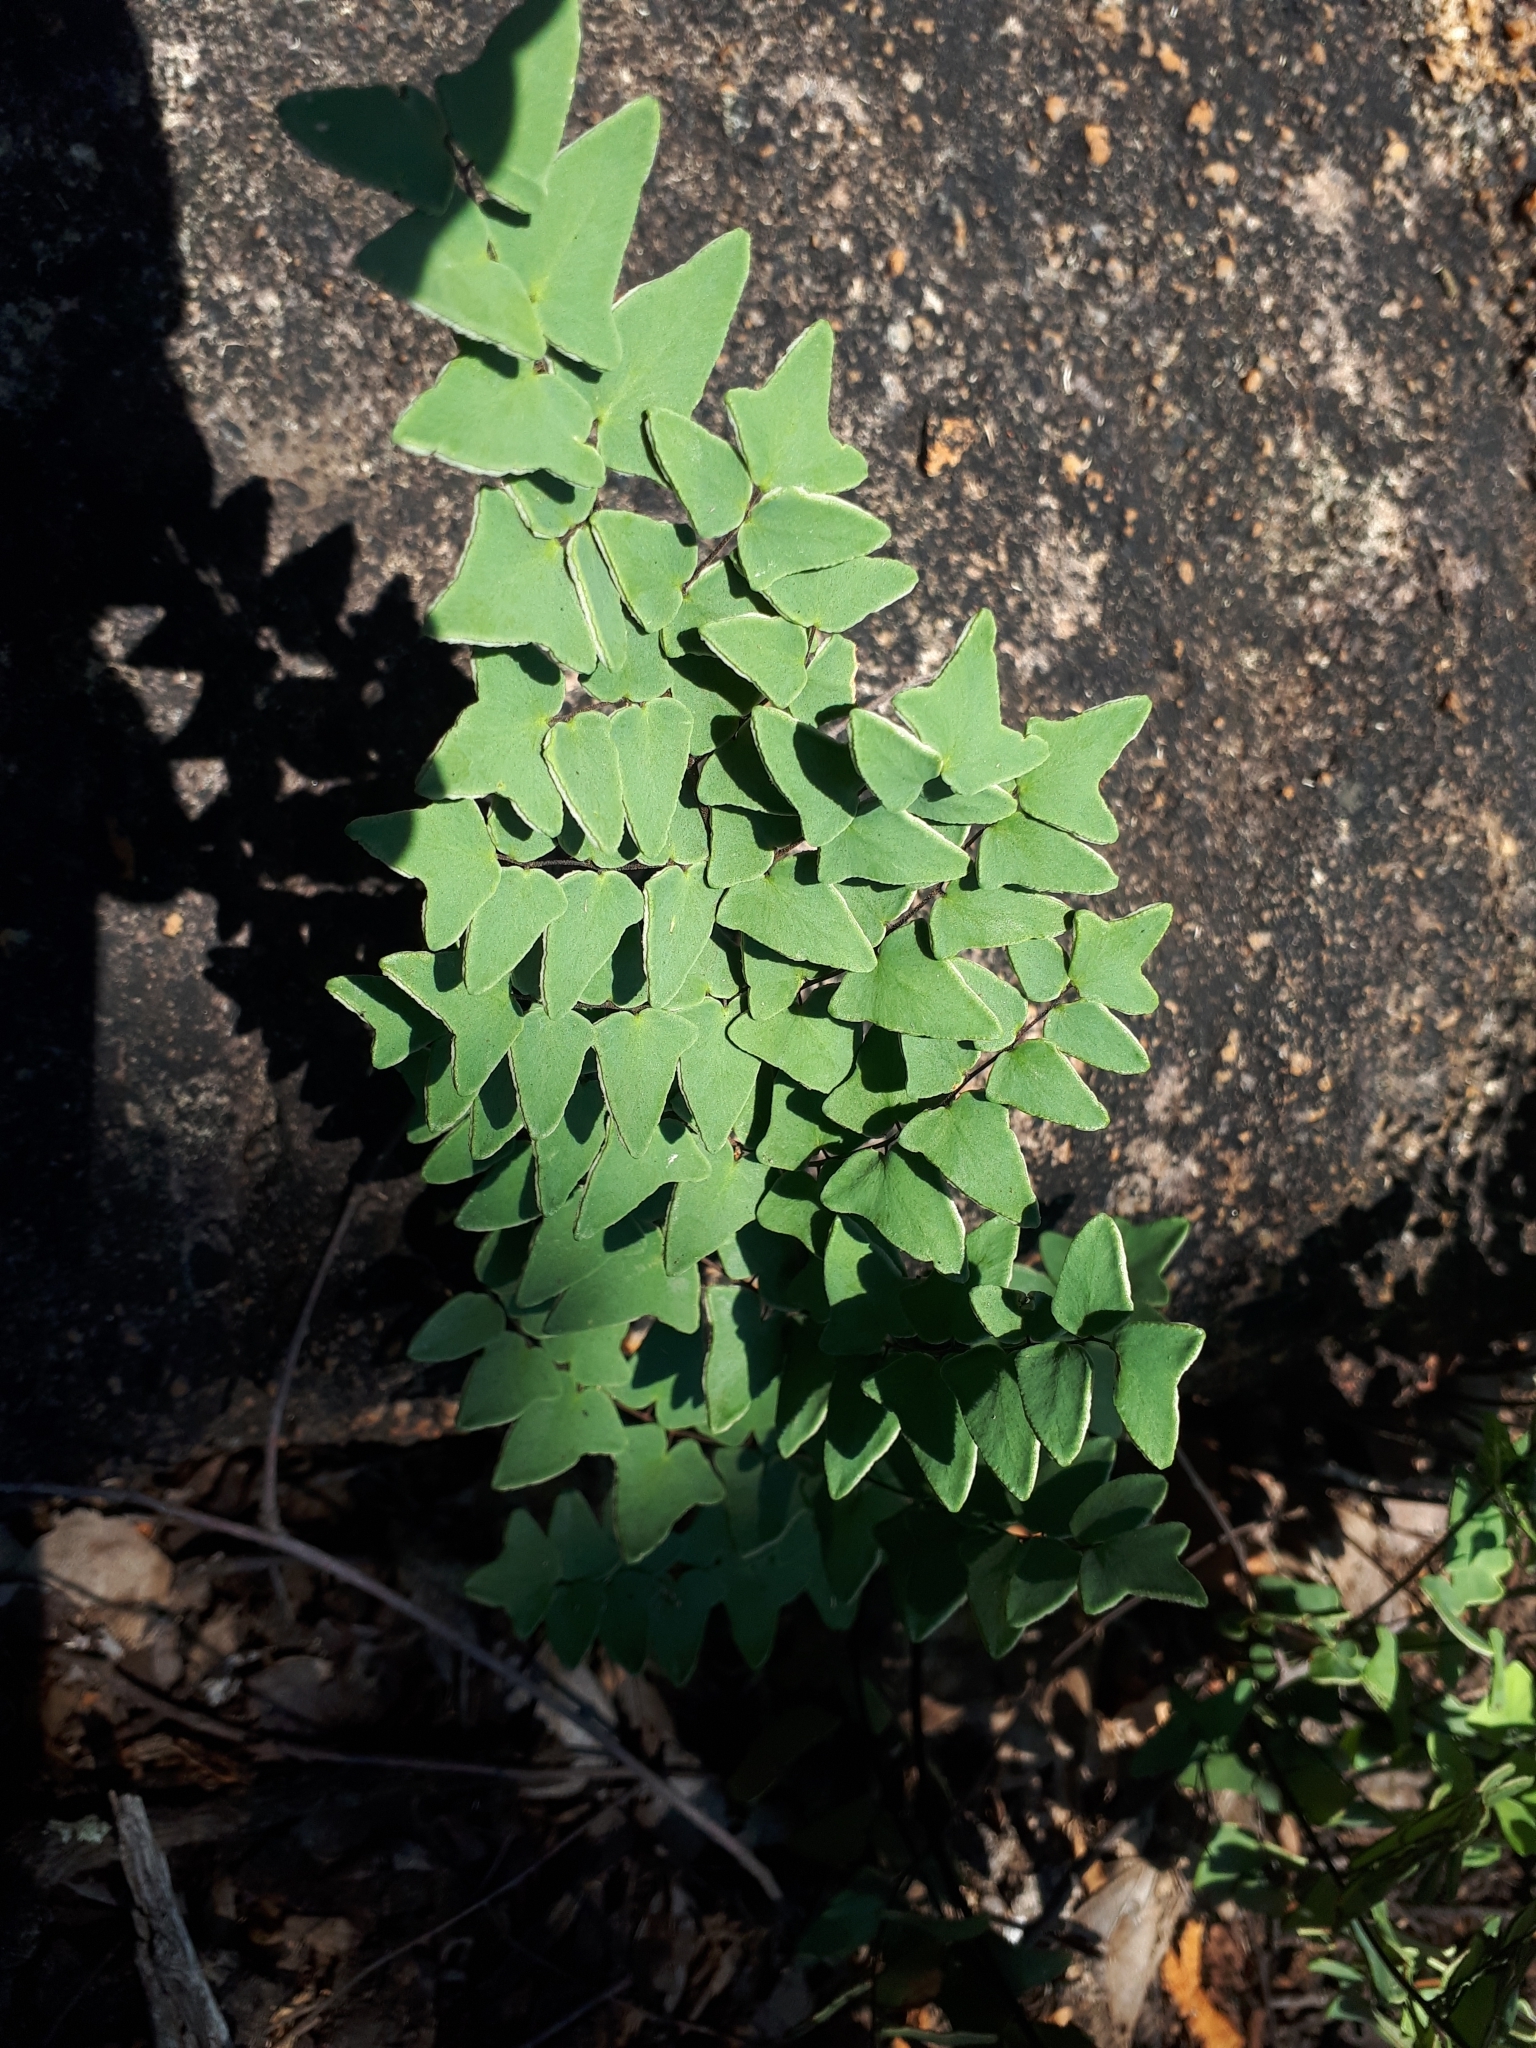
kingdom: Plantae
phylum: Tracheophyta
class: Polypodiopsida
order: Polypodiales
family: Pteridaceae
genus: Pellaea
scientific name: Pellaea calomelanos
